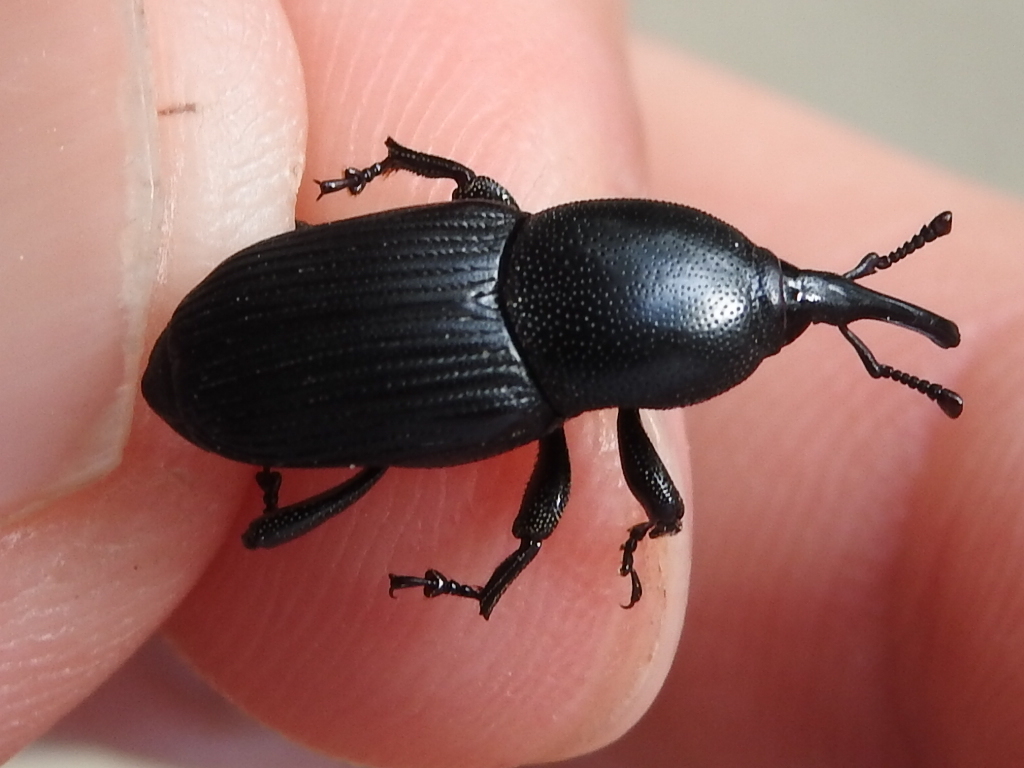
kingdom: Animalia
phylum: Arthropoda
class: Insecta
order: Coleoptera
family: Dryophthoridae
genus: Scyphophorus
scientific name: Scyphophorus acupunctatus
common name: Weevil
